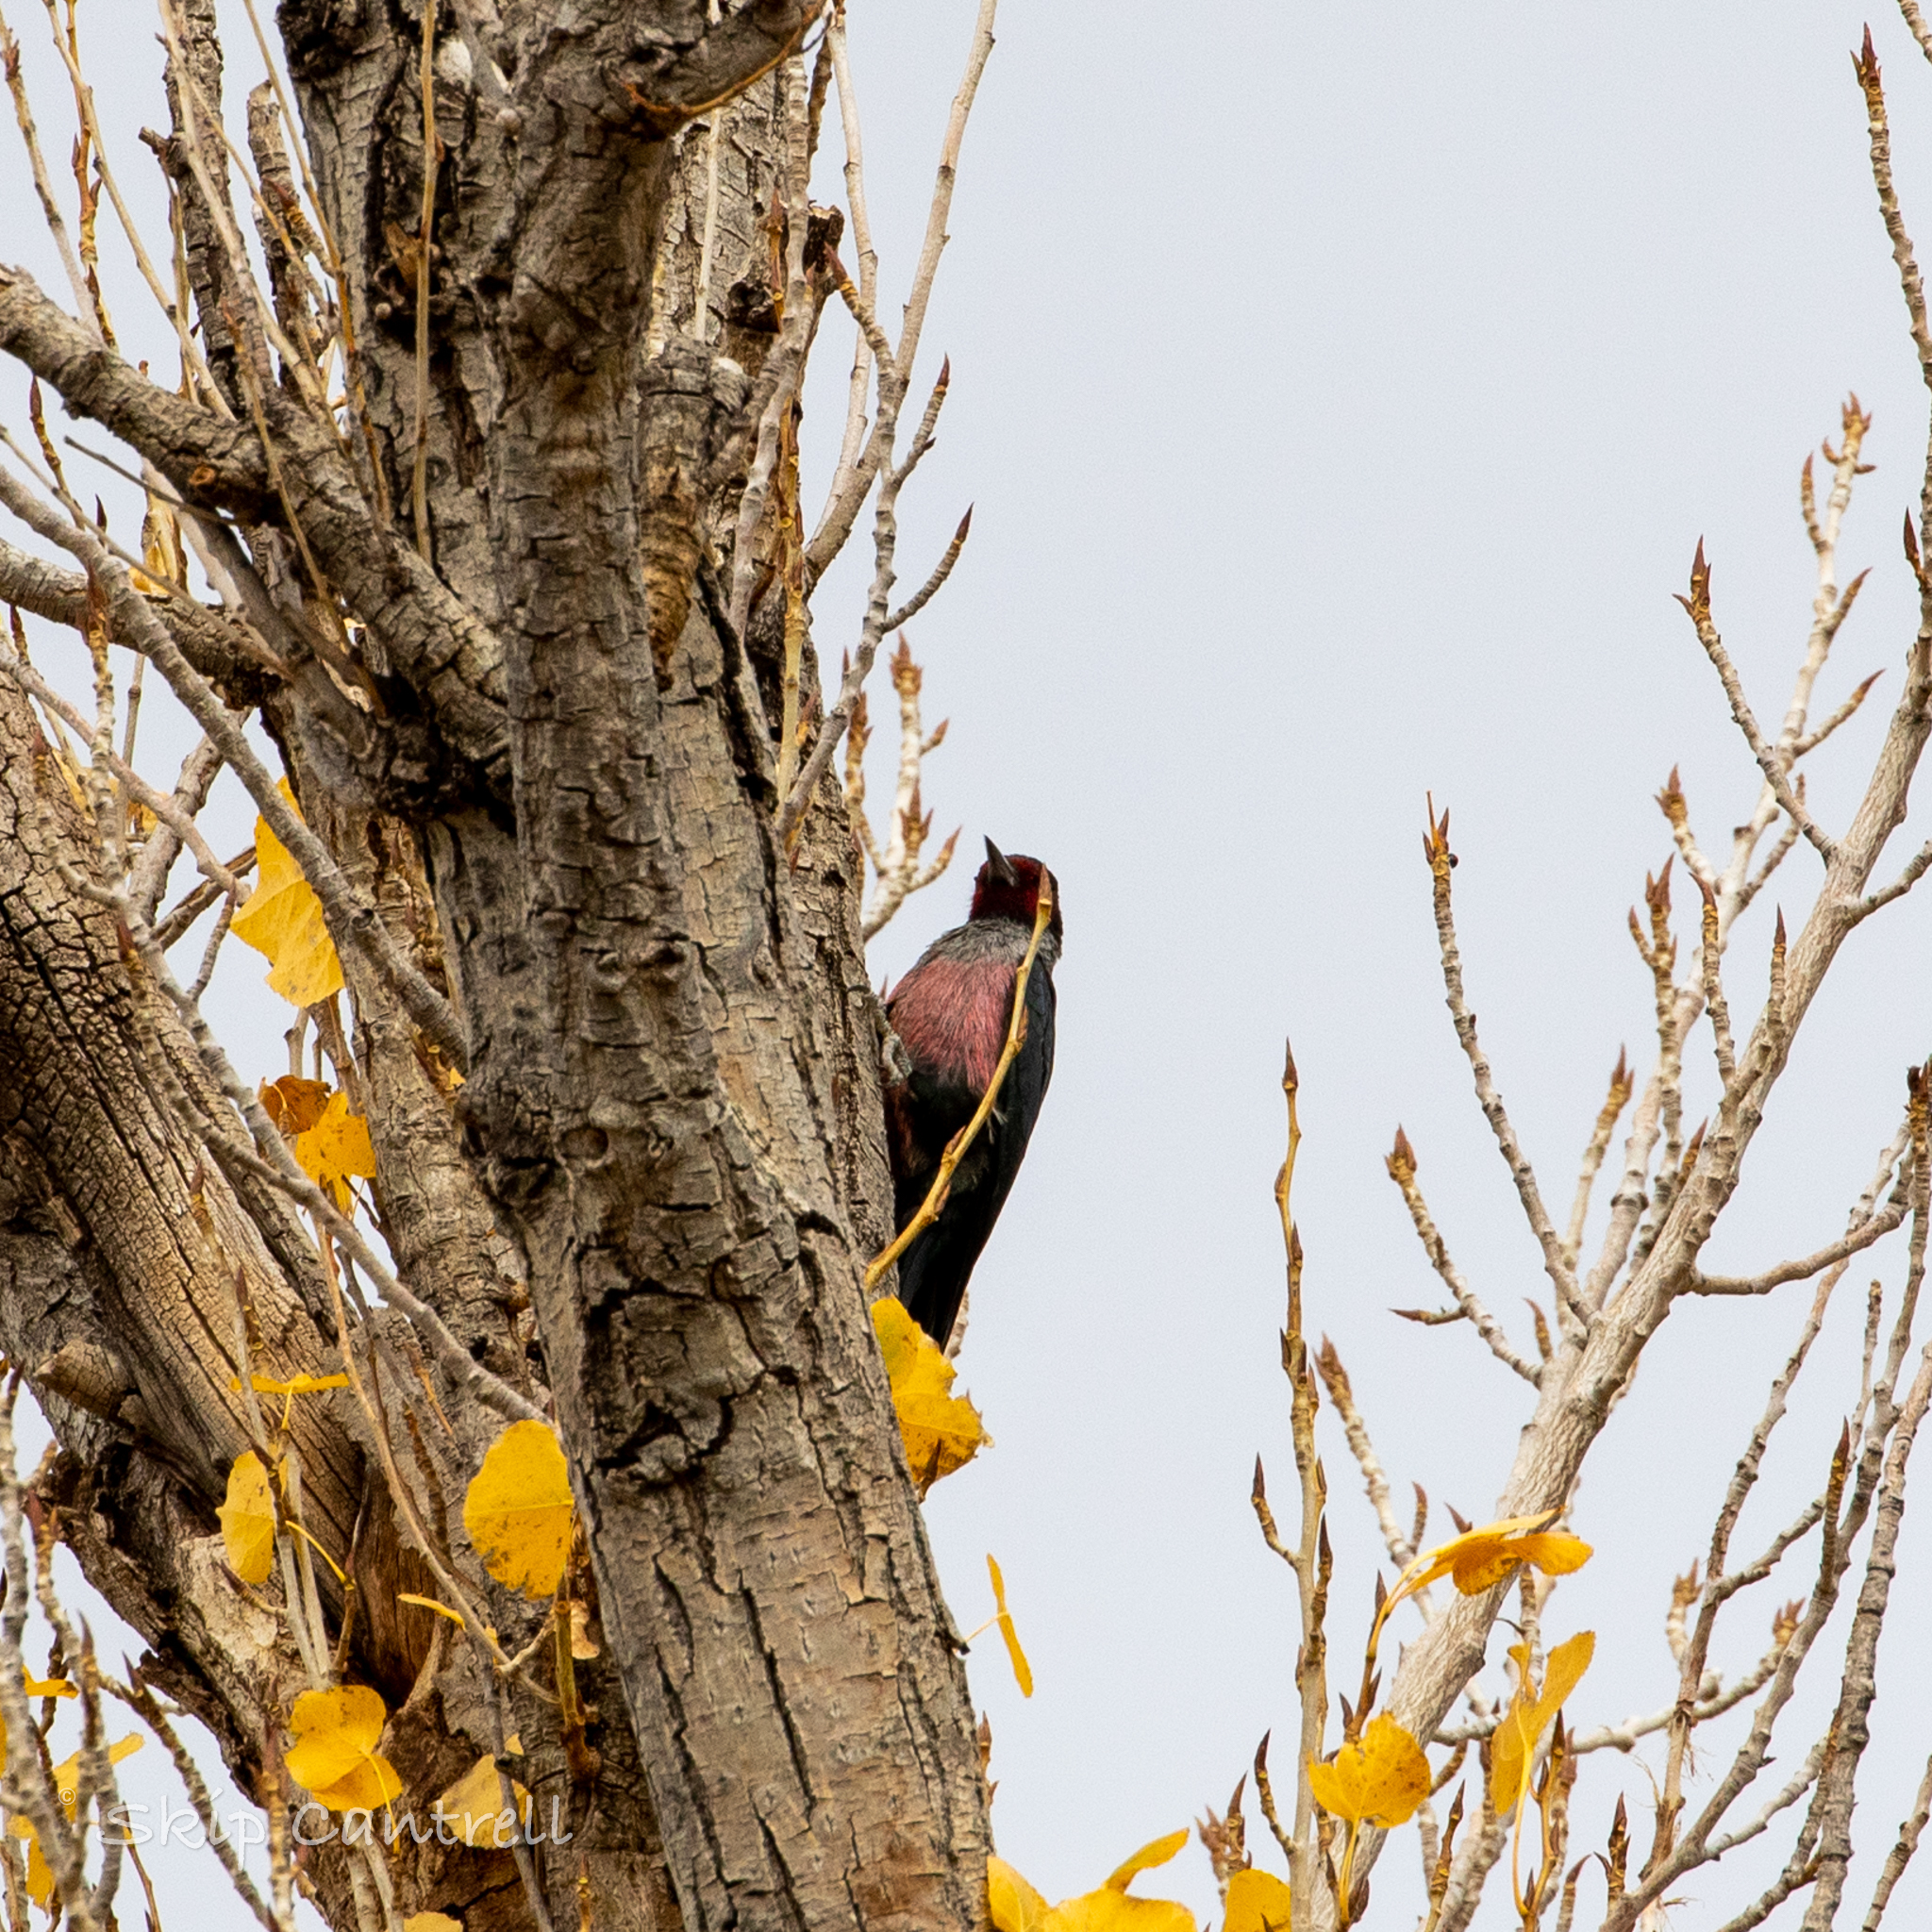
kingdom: Animalia
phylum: Chordata
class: Aves
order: Piciformes
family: Picidae
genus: Melanerpes
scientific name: Melanerpes lewis
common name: Lewis's woodpecker
